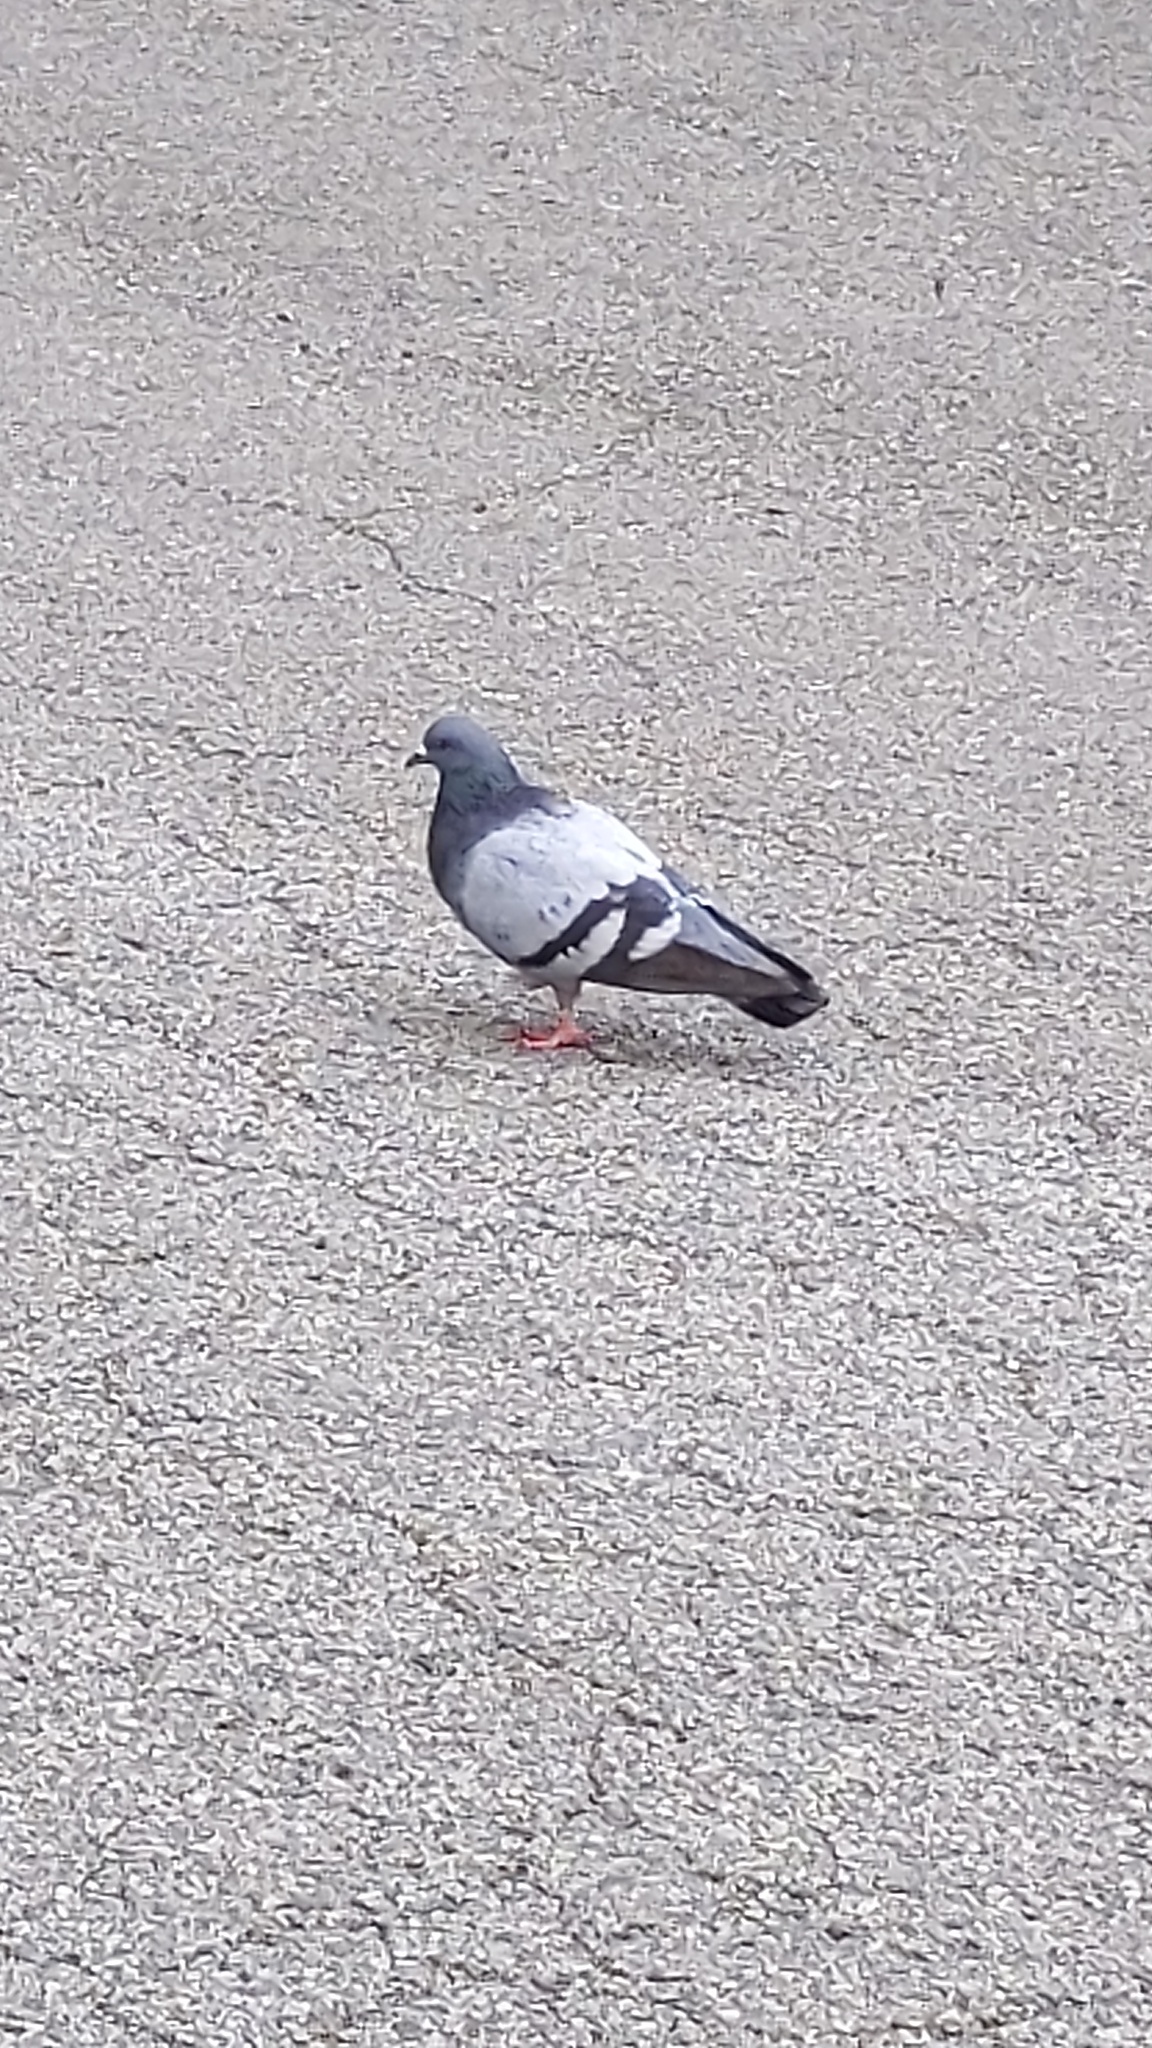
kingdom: Animalia
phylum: Chordata
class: Aves
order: Columbiformes
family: Columbidae
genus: Columba
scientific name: Columba livia
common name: Rock pigeon
